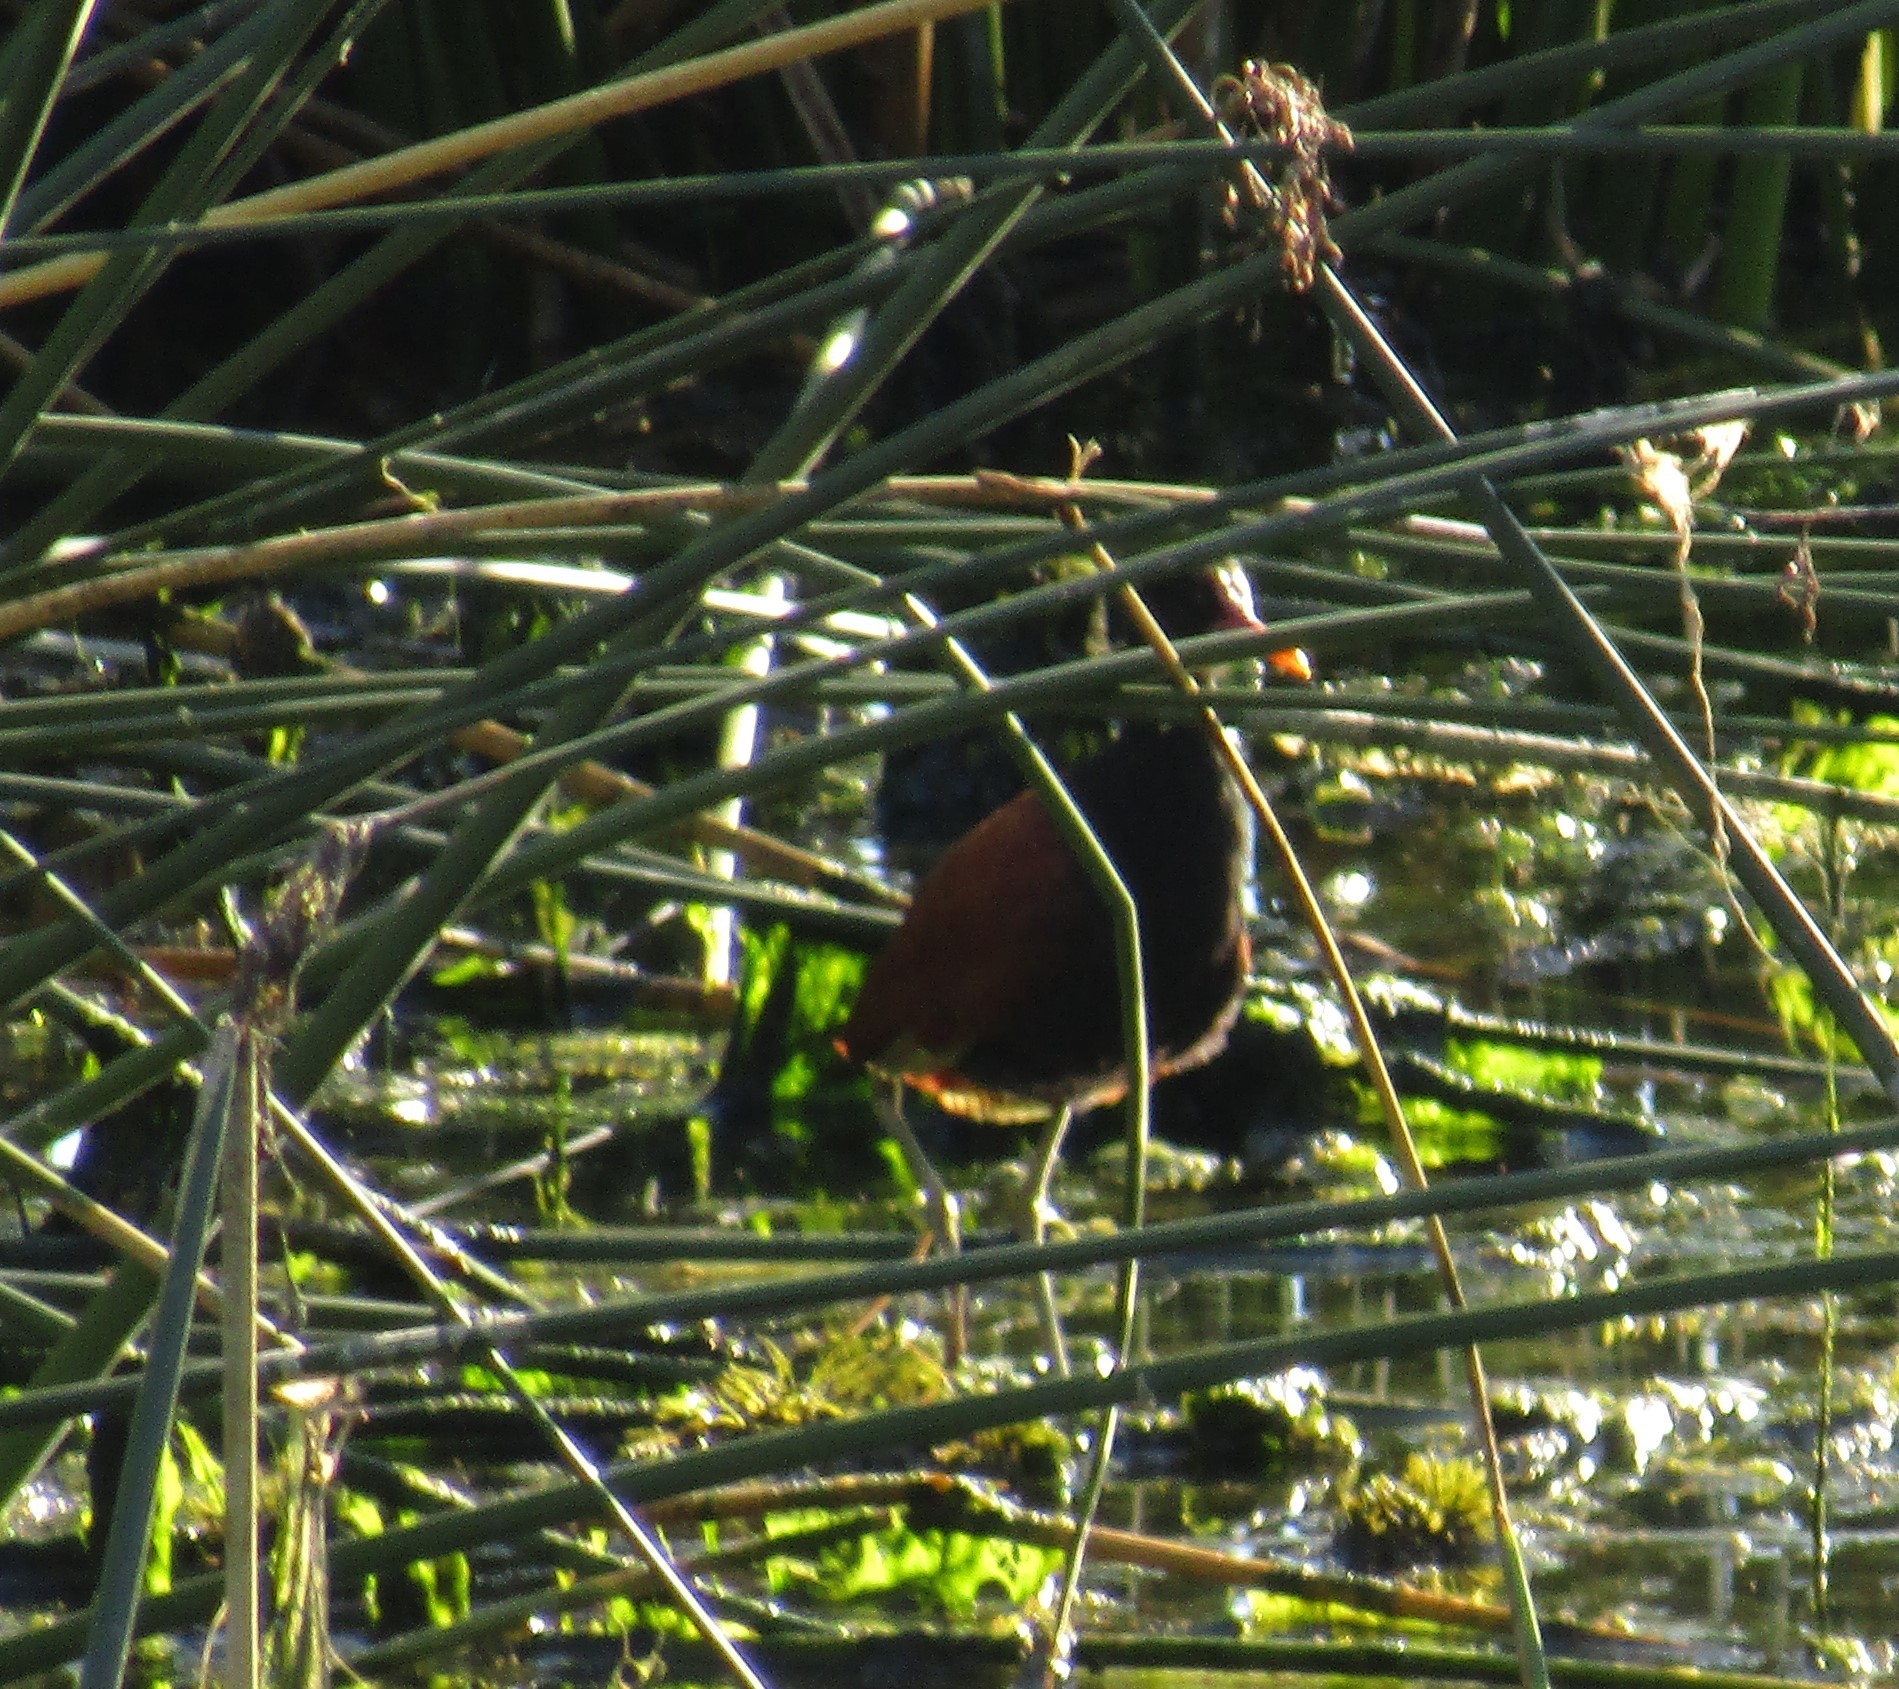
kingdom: Animalia
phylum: Chordata
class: Aves
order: Charadriiformes
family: Jacanidae
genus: Jacana
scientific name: Jacana jacana
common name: Wattled jacana
